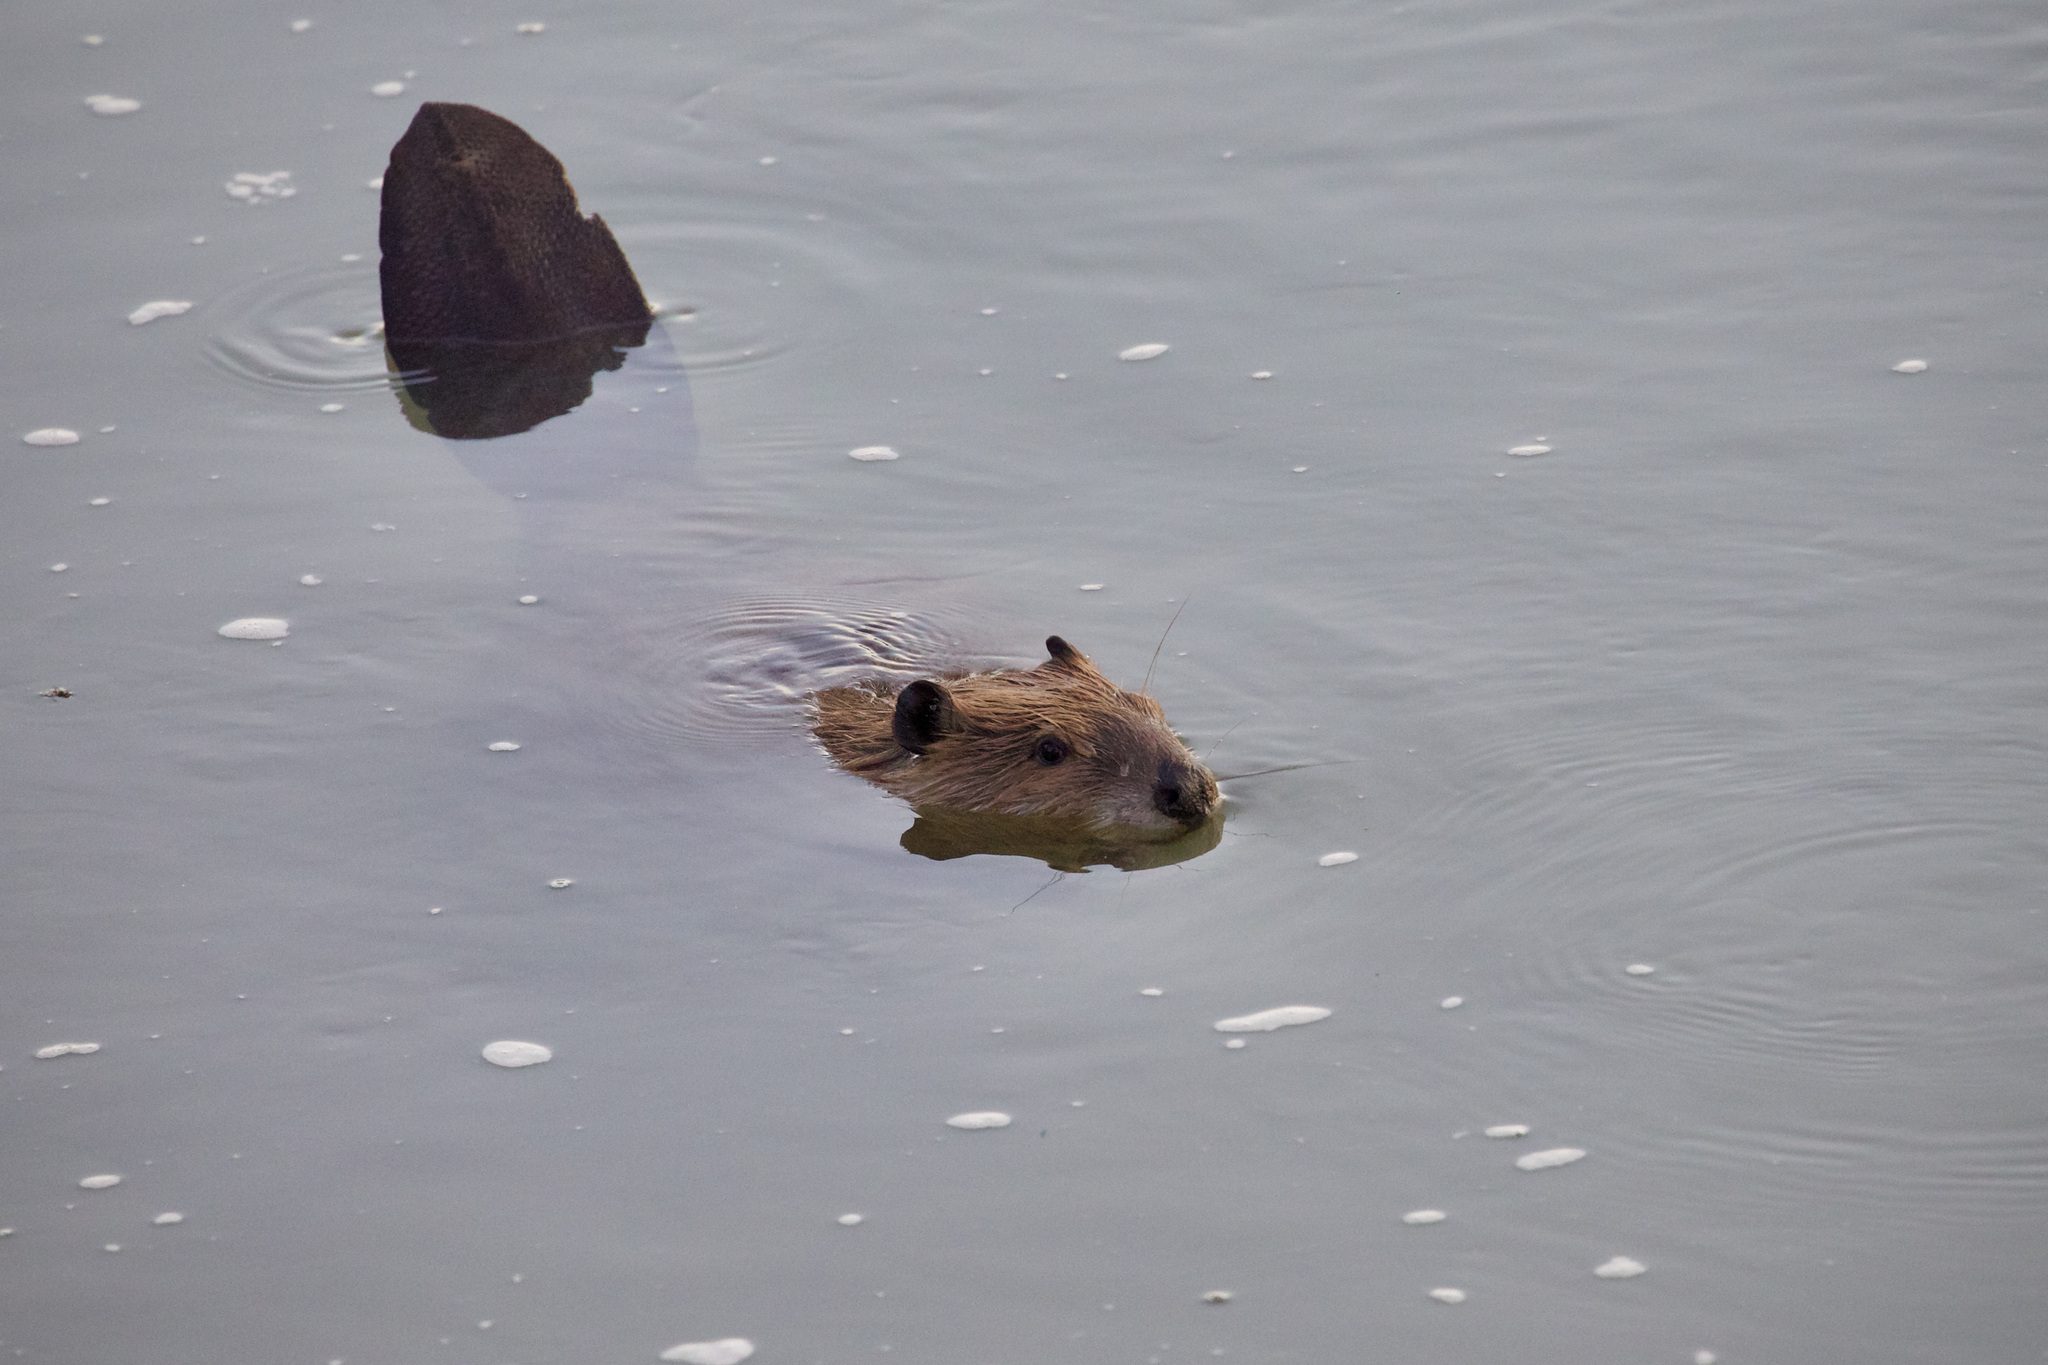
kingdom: Animalia
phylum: Chordata
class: Mammalia
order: Rodentia
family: Castoridae
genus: Castor
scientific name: Castor canadensis
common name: American beaver
